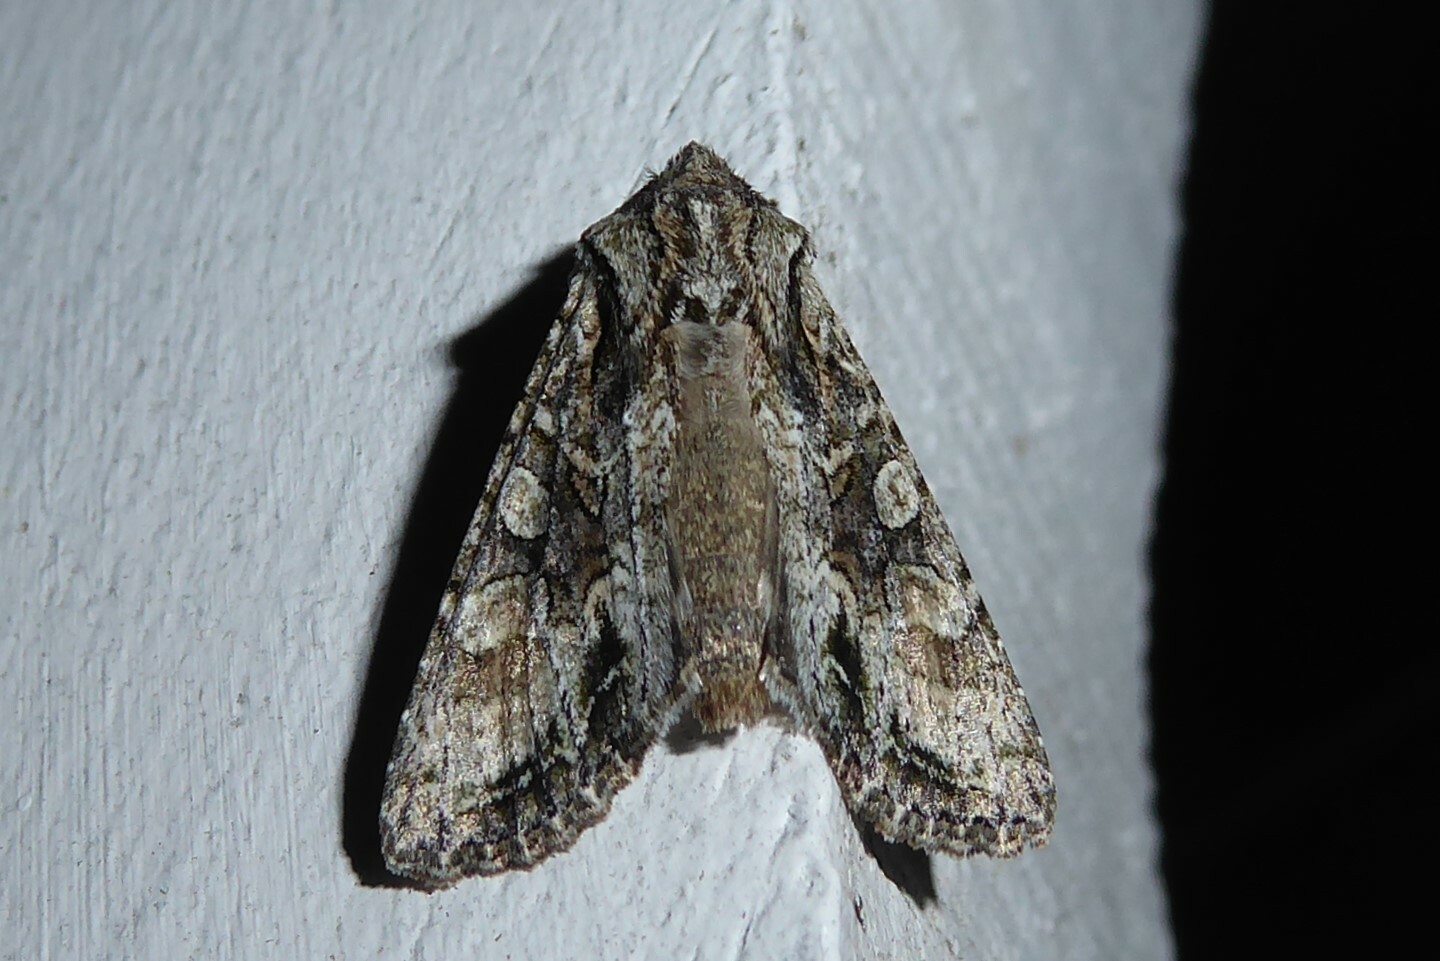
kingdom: Animalia
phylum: Arthropoda
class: Insecta
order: Lepidoptera
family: Noctuidae
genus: Ichneutica
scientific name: Ichneutica mutans
